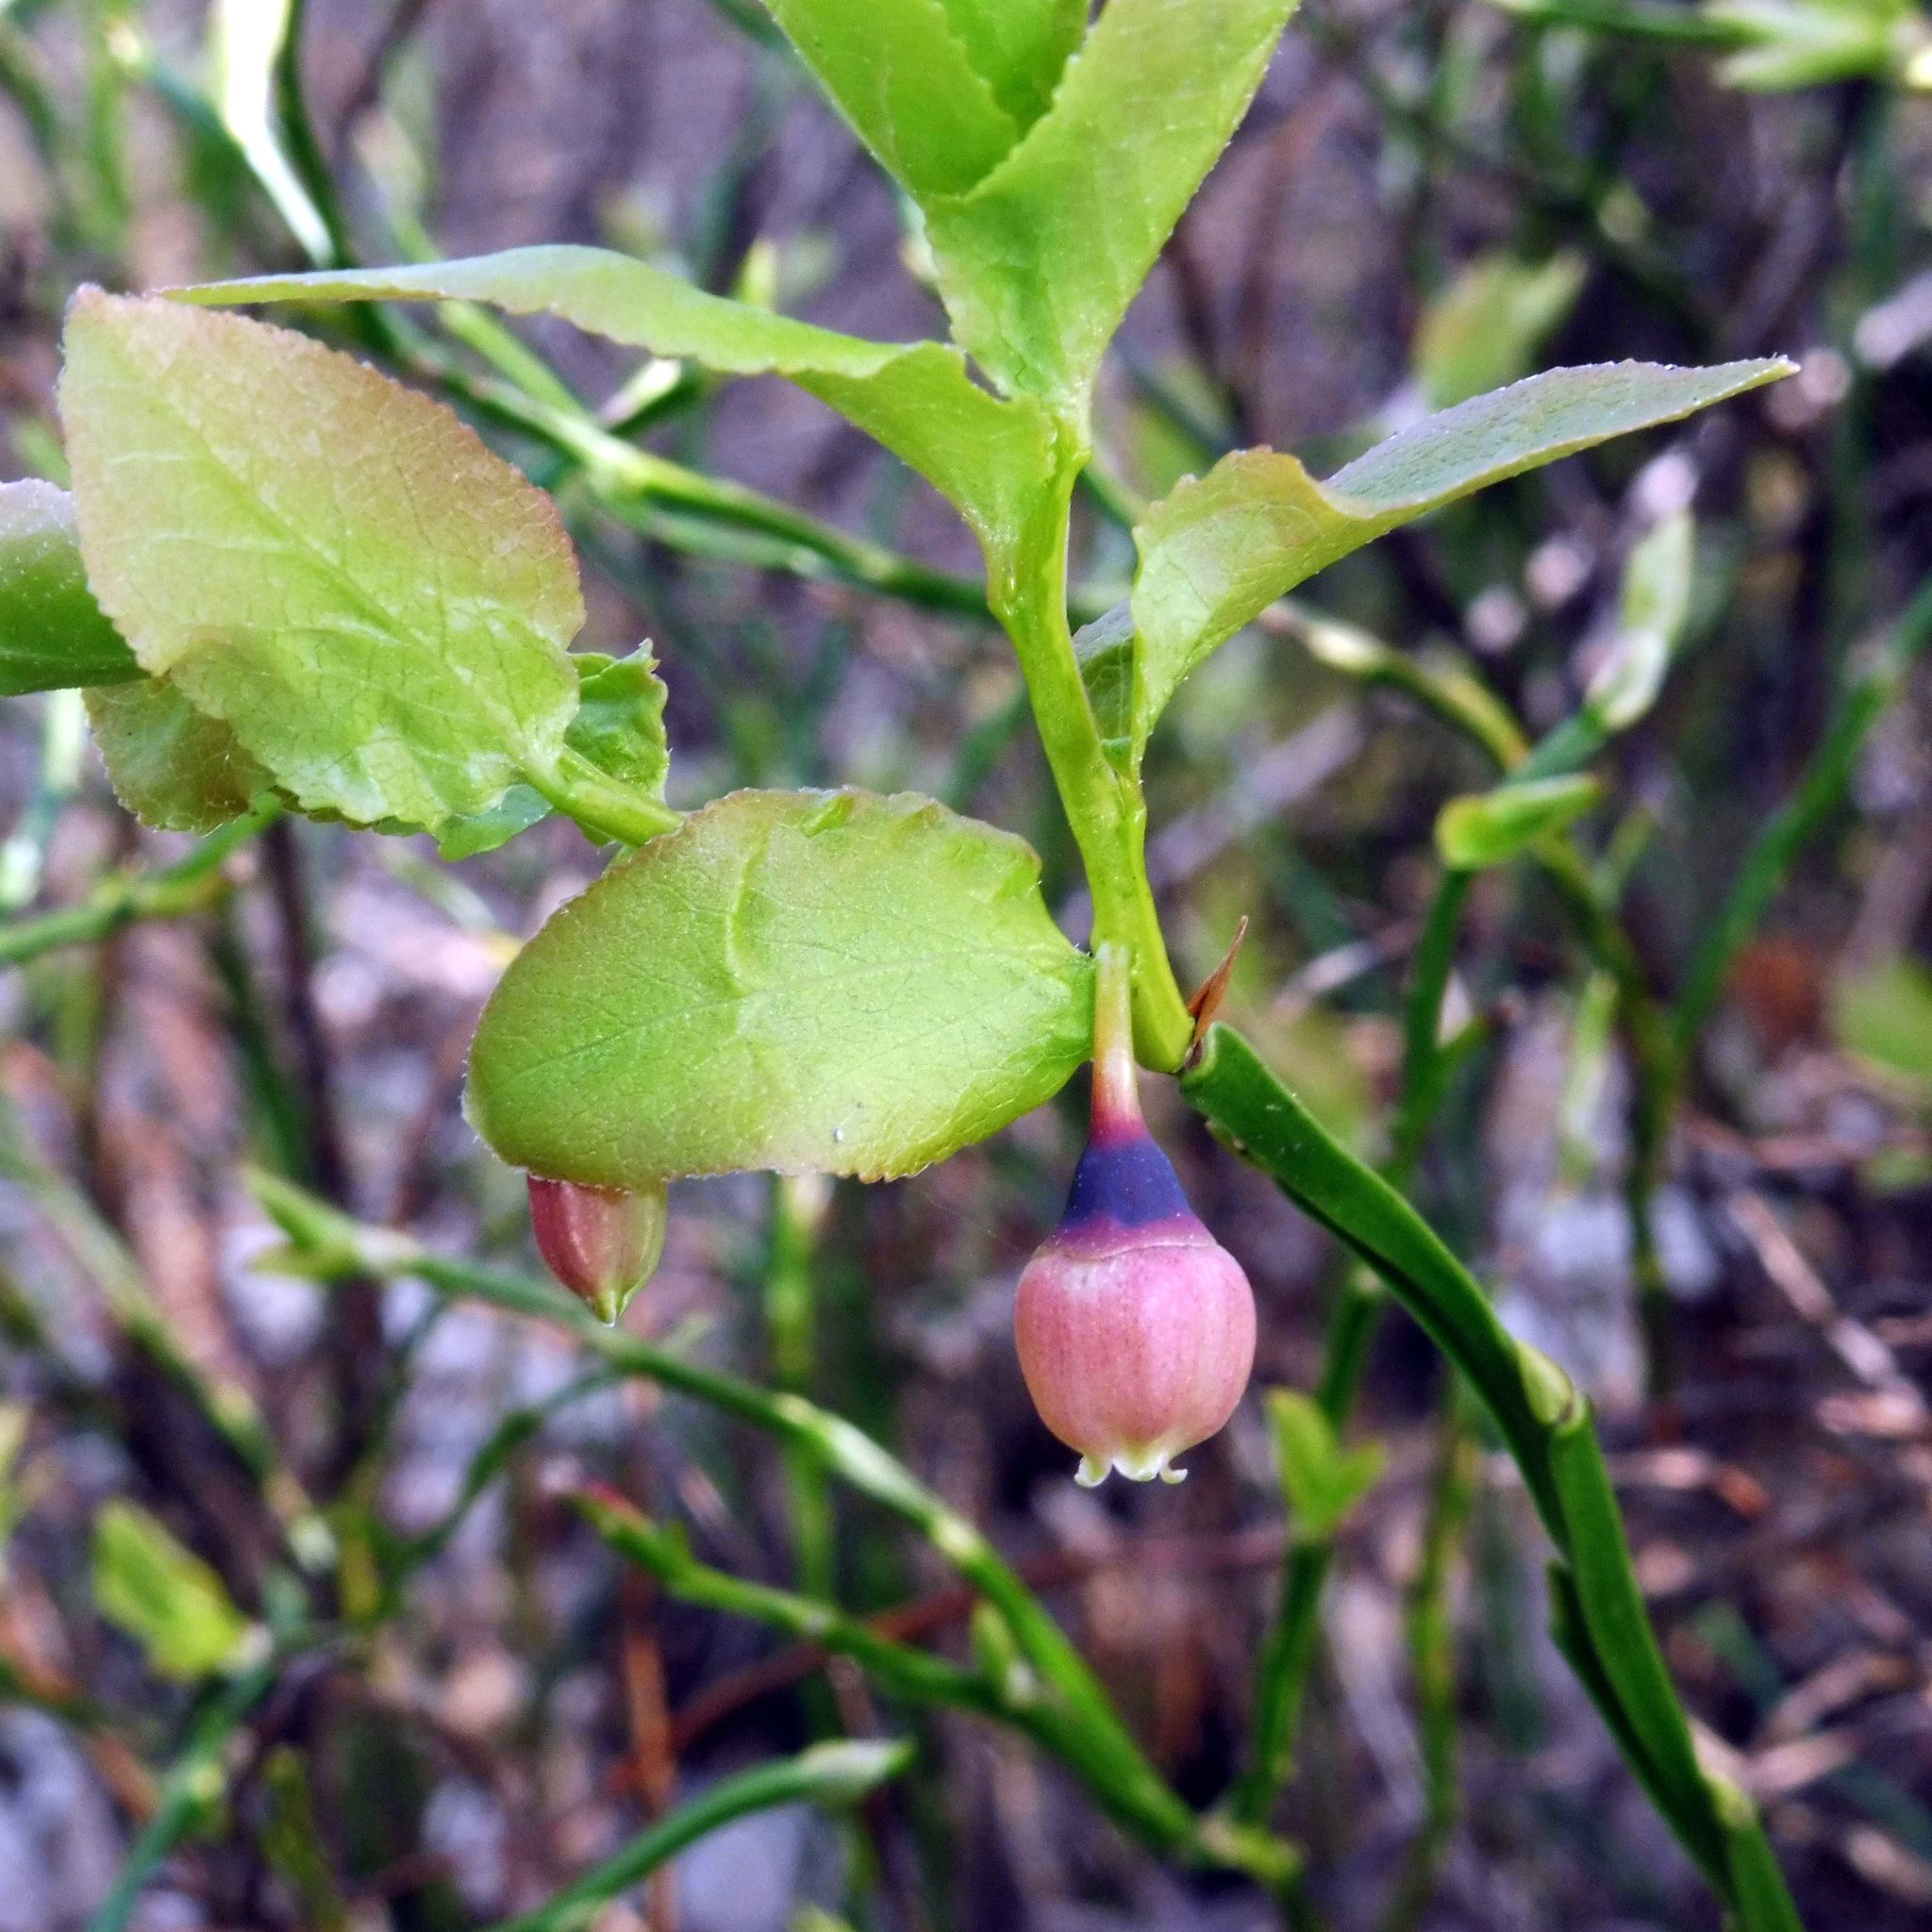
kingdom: Plantae
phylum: Tracheophyta
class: Magnoliopsida
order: Ericales
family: Ericaceae
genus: Vaccinium
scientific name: Vaccinium myrtillus
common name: Bilberry
